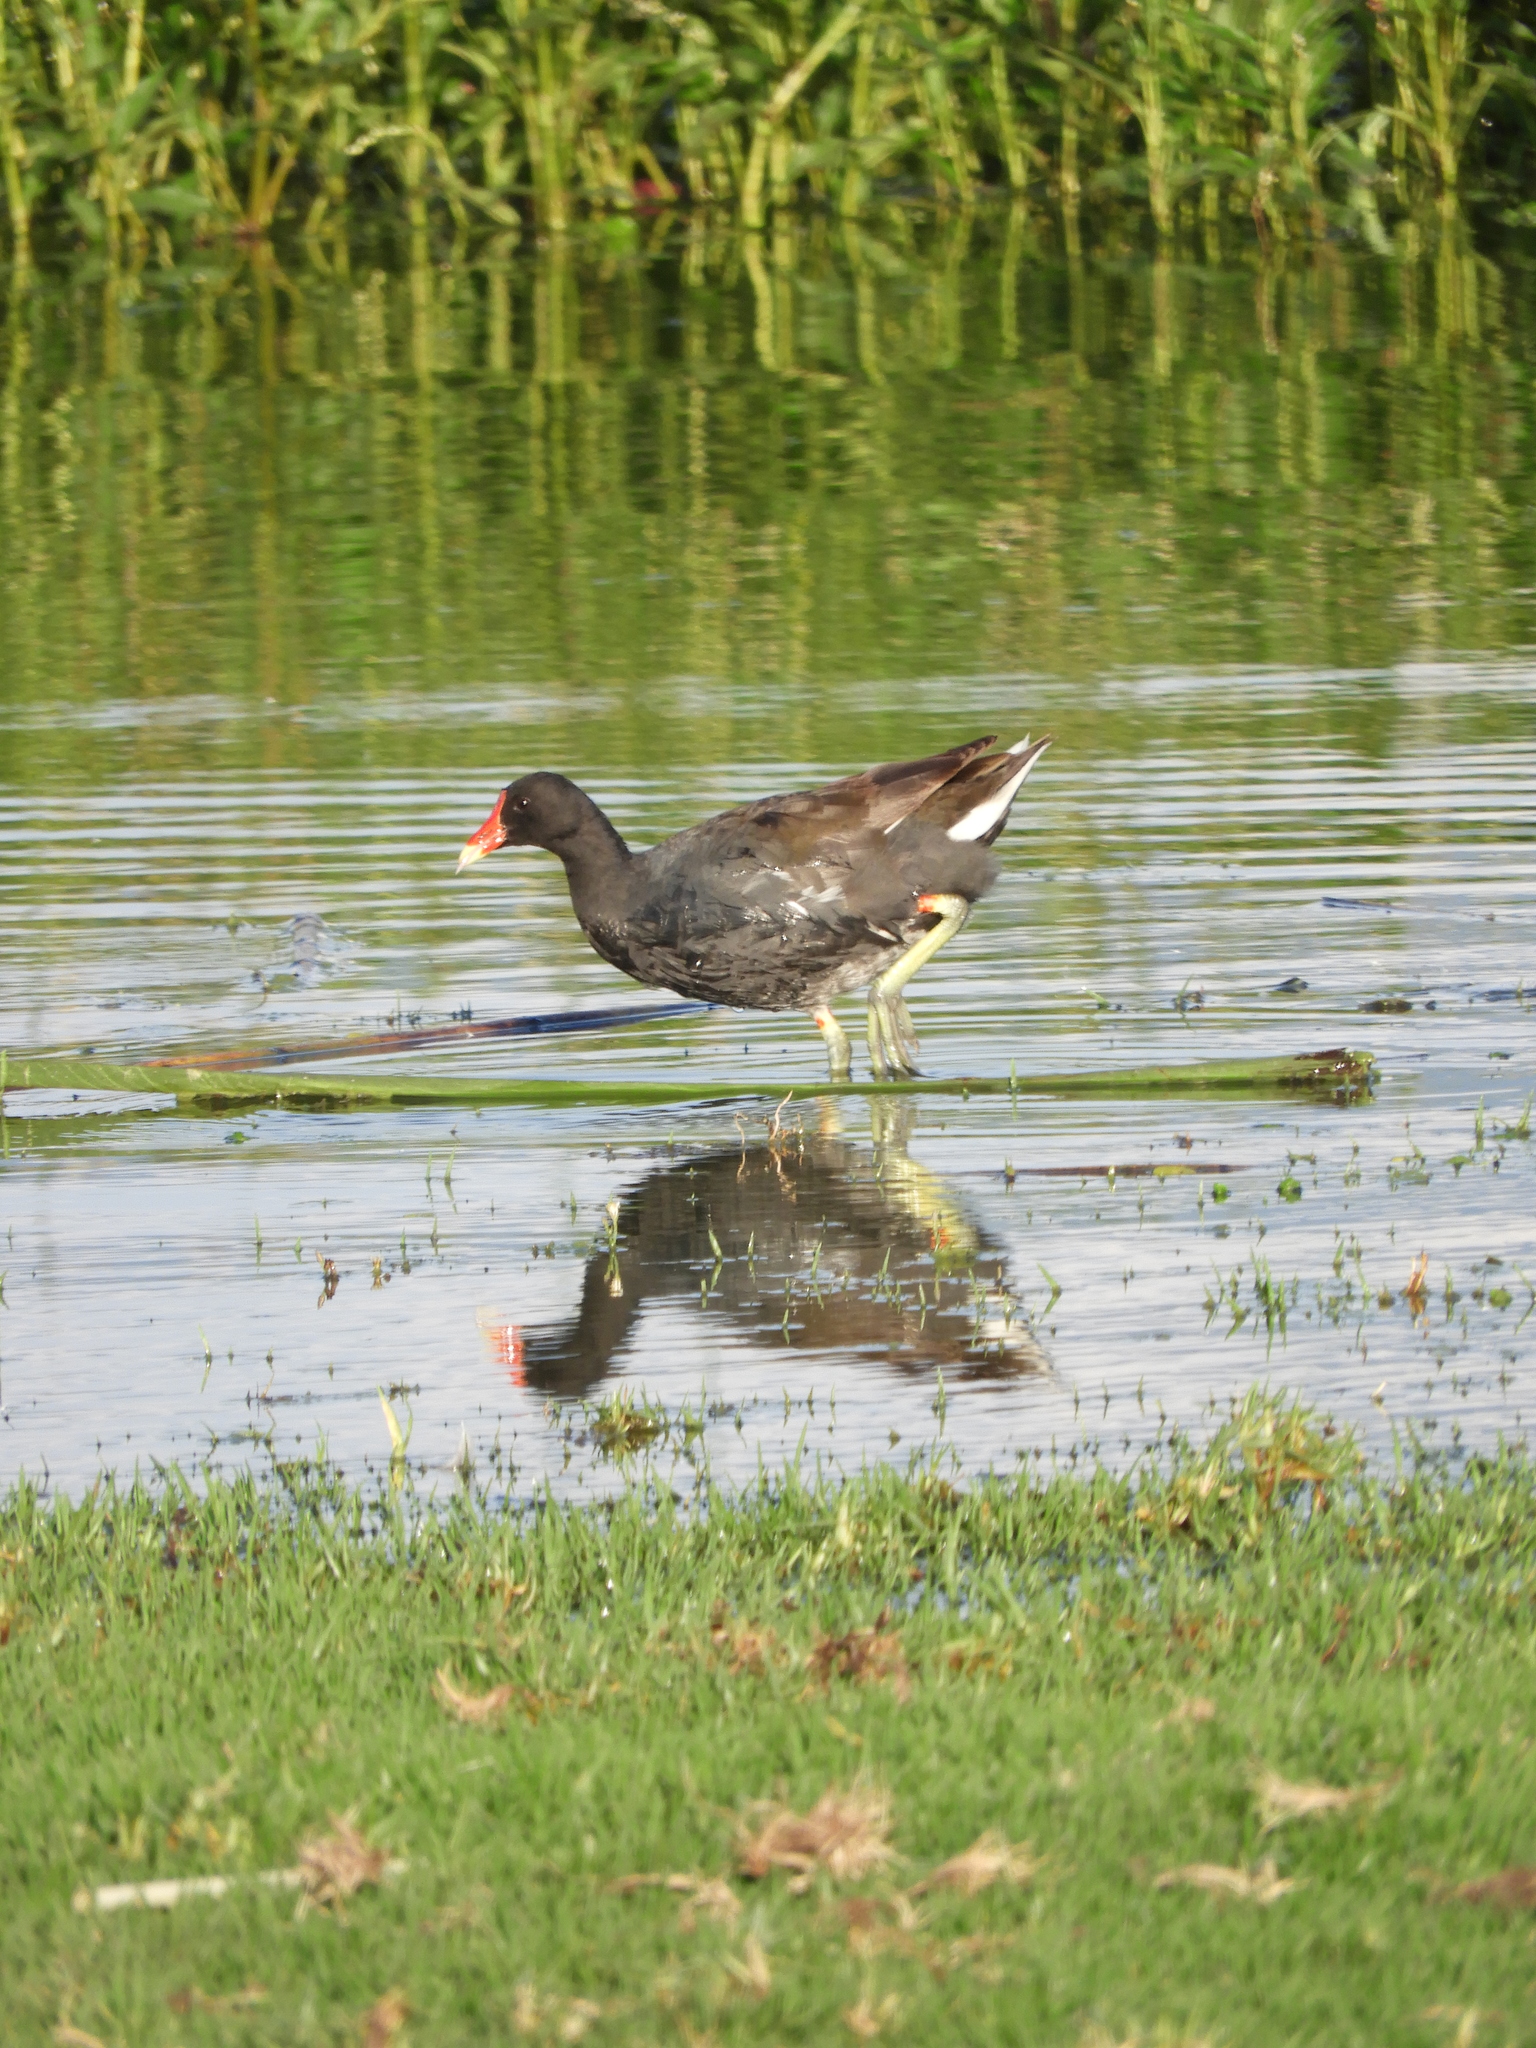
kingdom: Animalia
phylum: Chordata
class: Aves
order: Gruiformes
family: Rallidae
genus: Gallinula
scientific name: Gallinula chloropus
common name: Common moorhen
